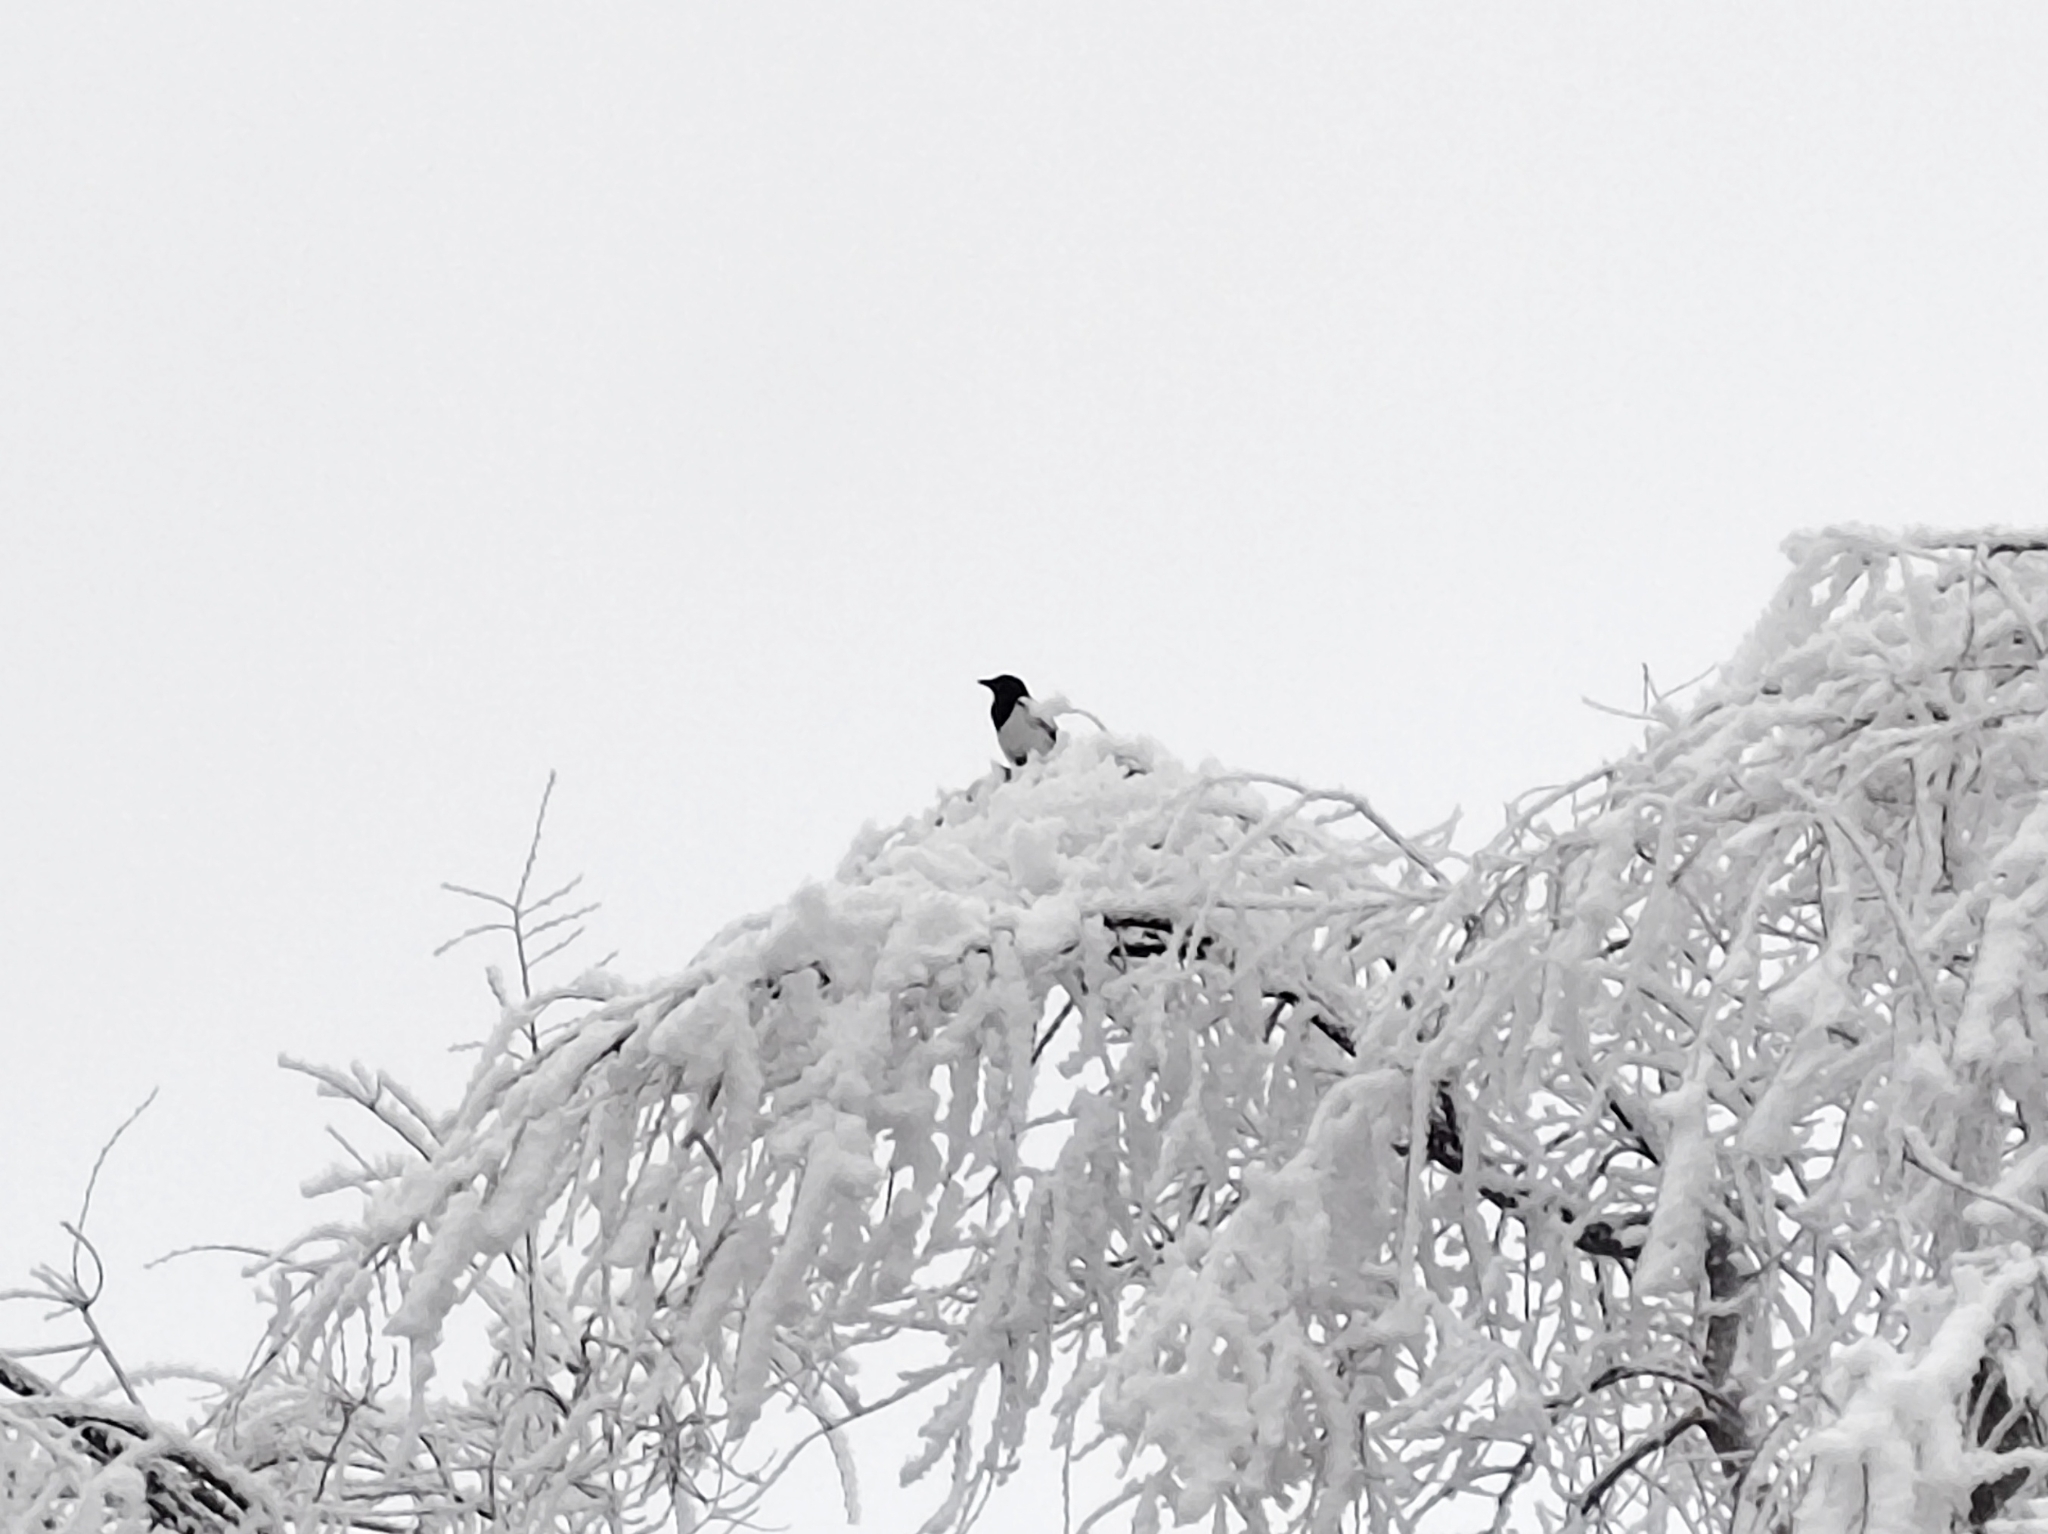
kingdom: Animalia
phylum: Chordata
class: Aves
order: Passeriformes
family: Corvidae
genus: Pica
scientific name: Pica pica
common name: Eurasian magpie
